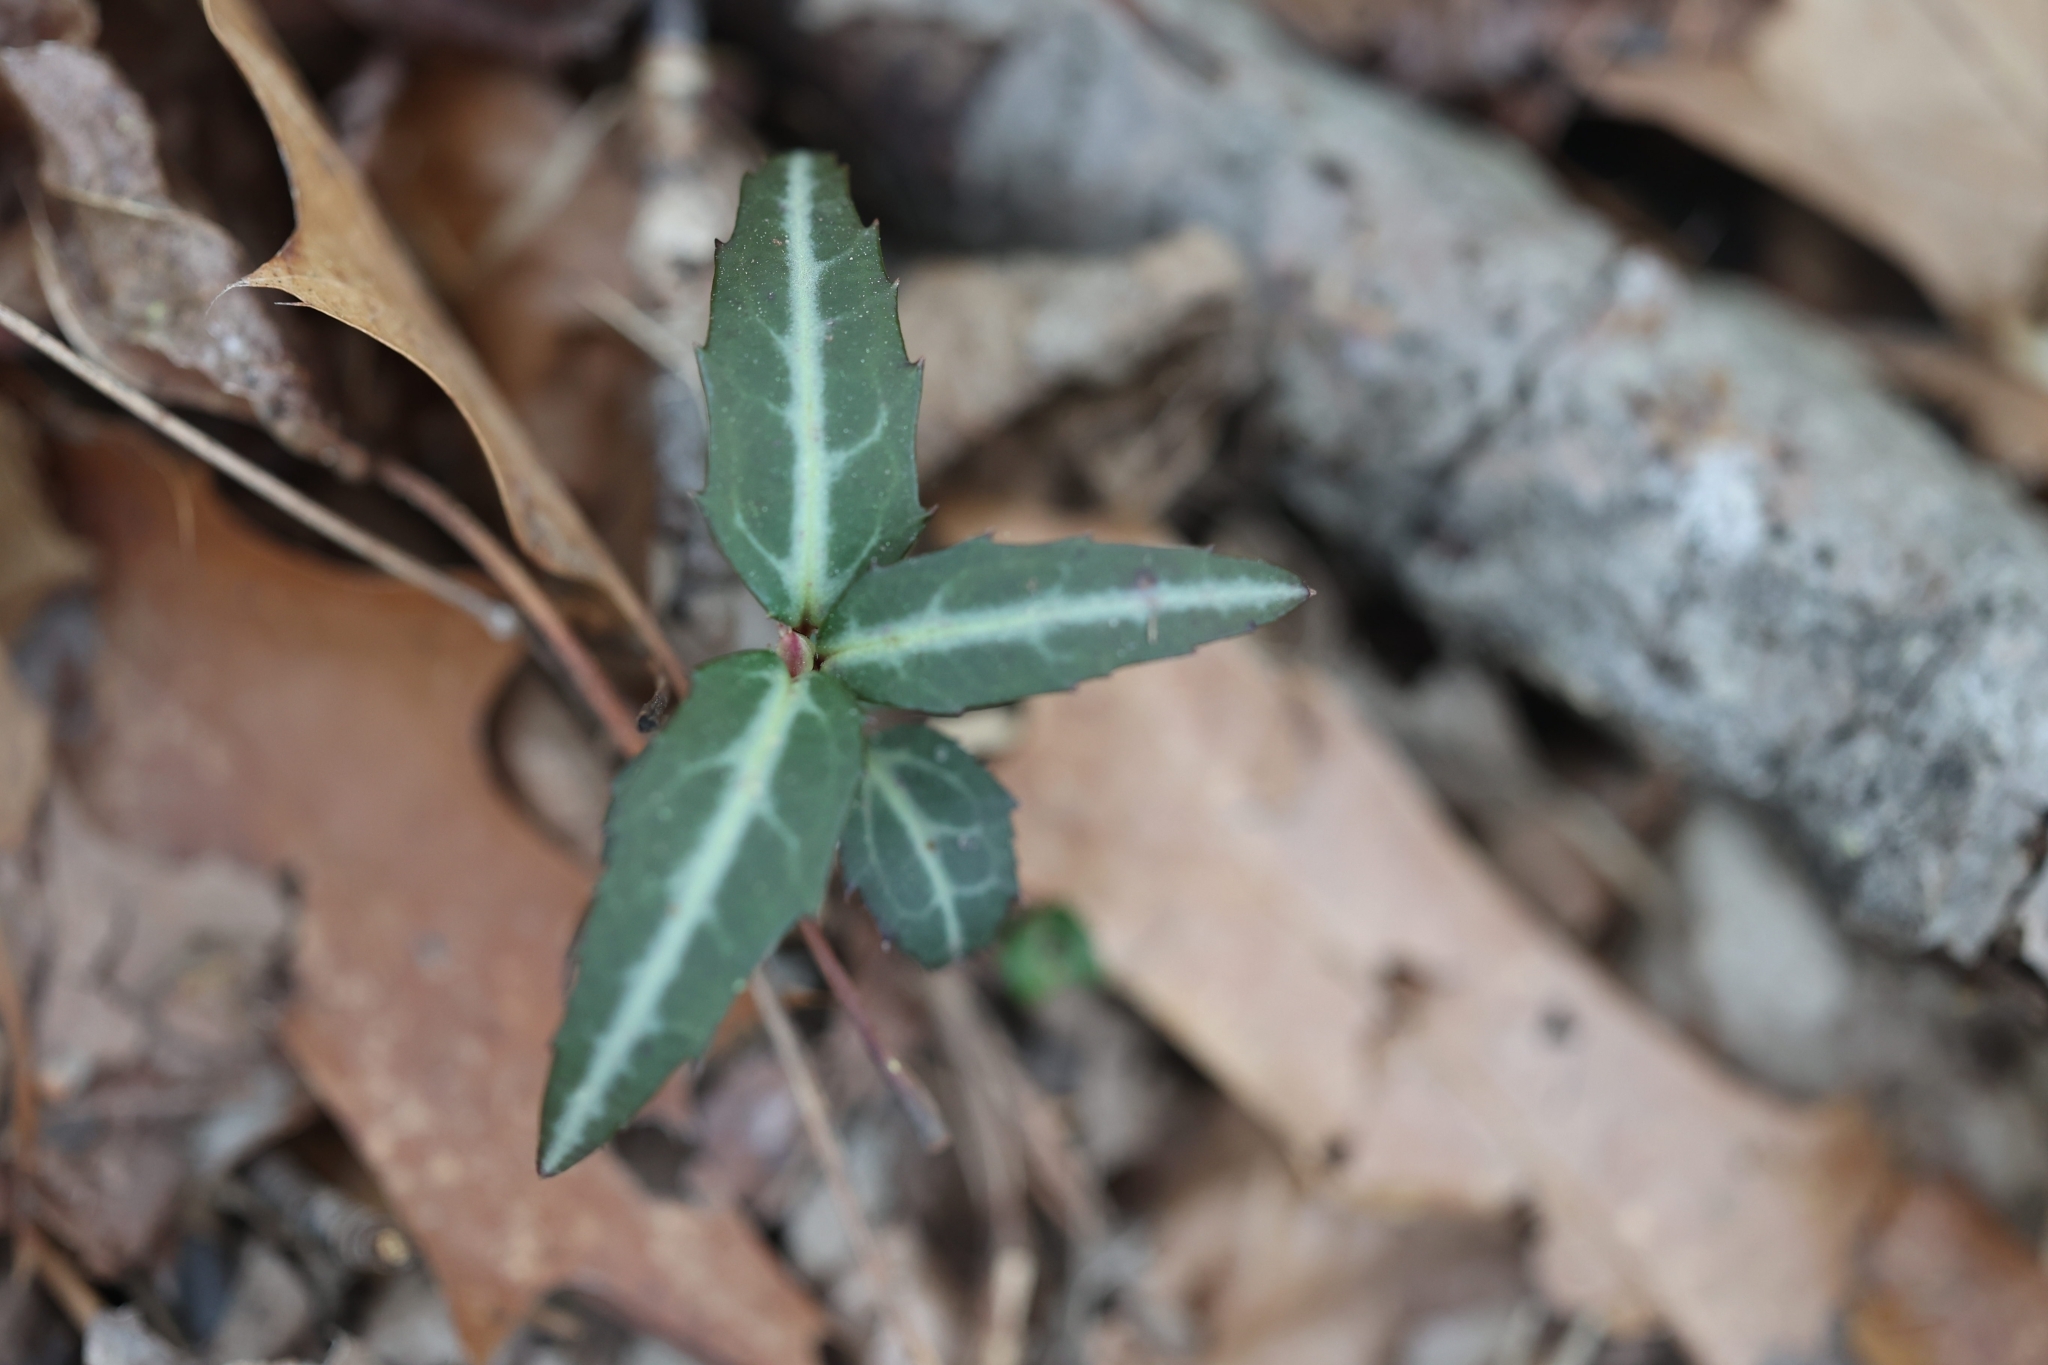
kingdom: Plantae
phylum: Tracheophyta
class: Magnoliopsida
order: Ericales
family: Ericaceae
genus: Chimaphila
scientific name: Chimaphila maculata
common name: Spotted pipsissewa
